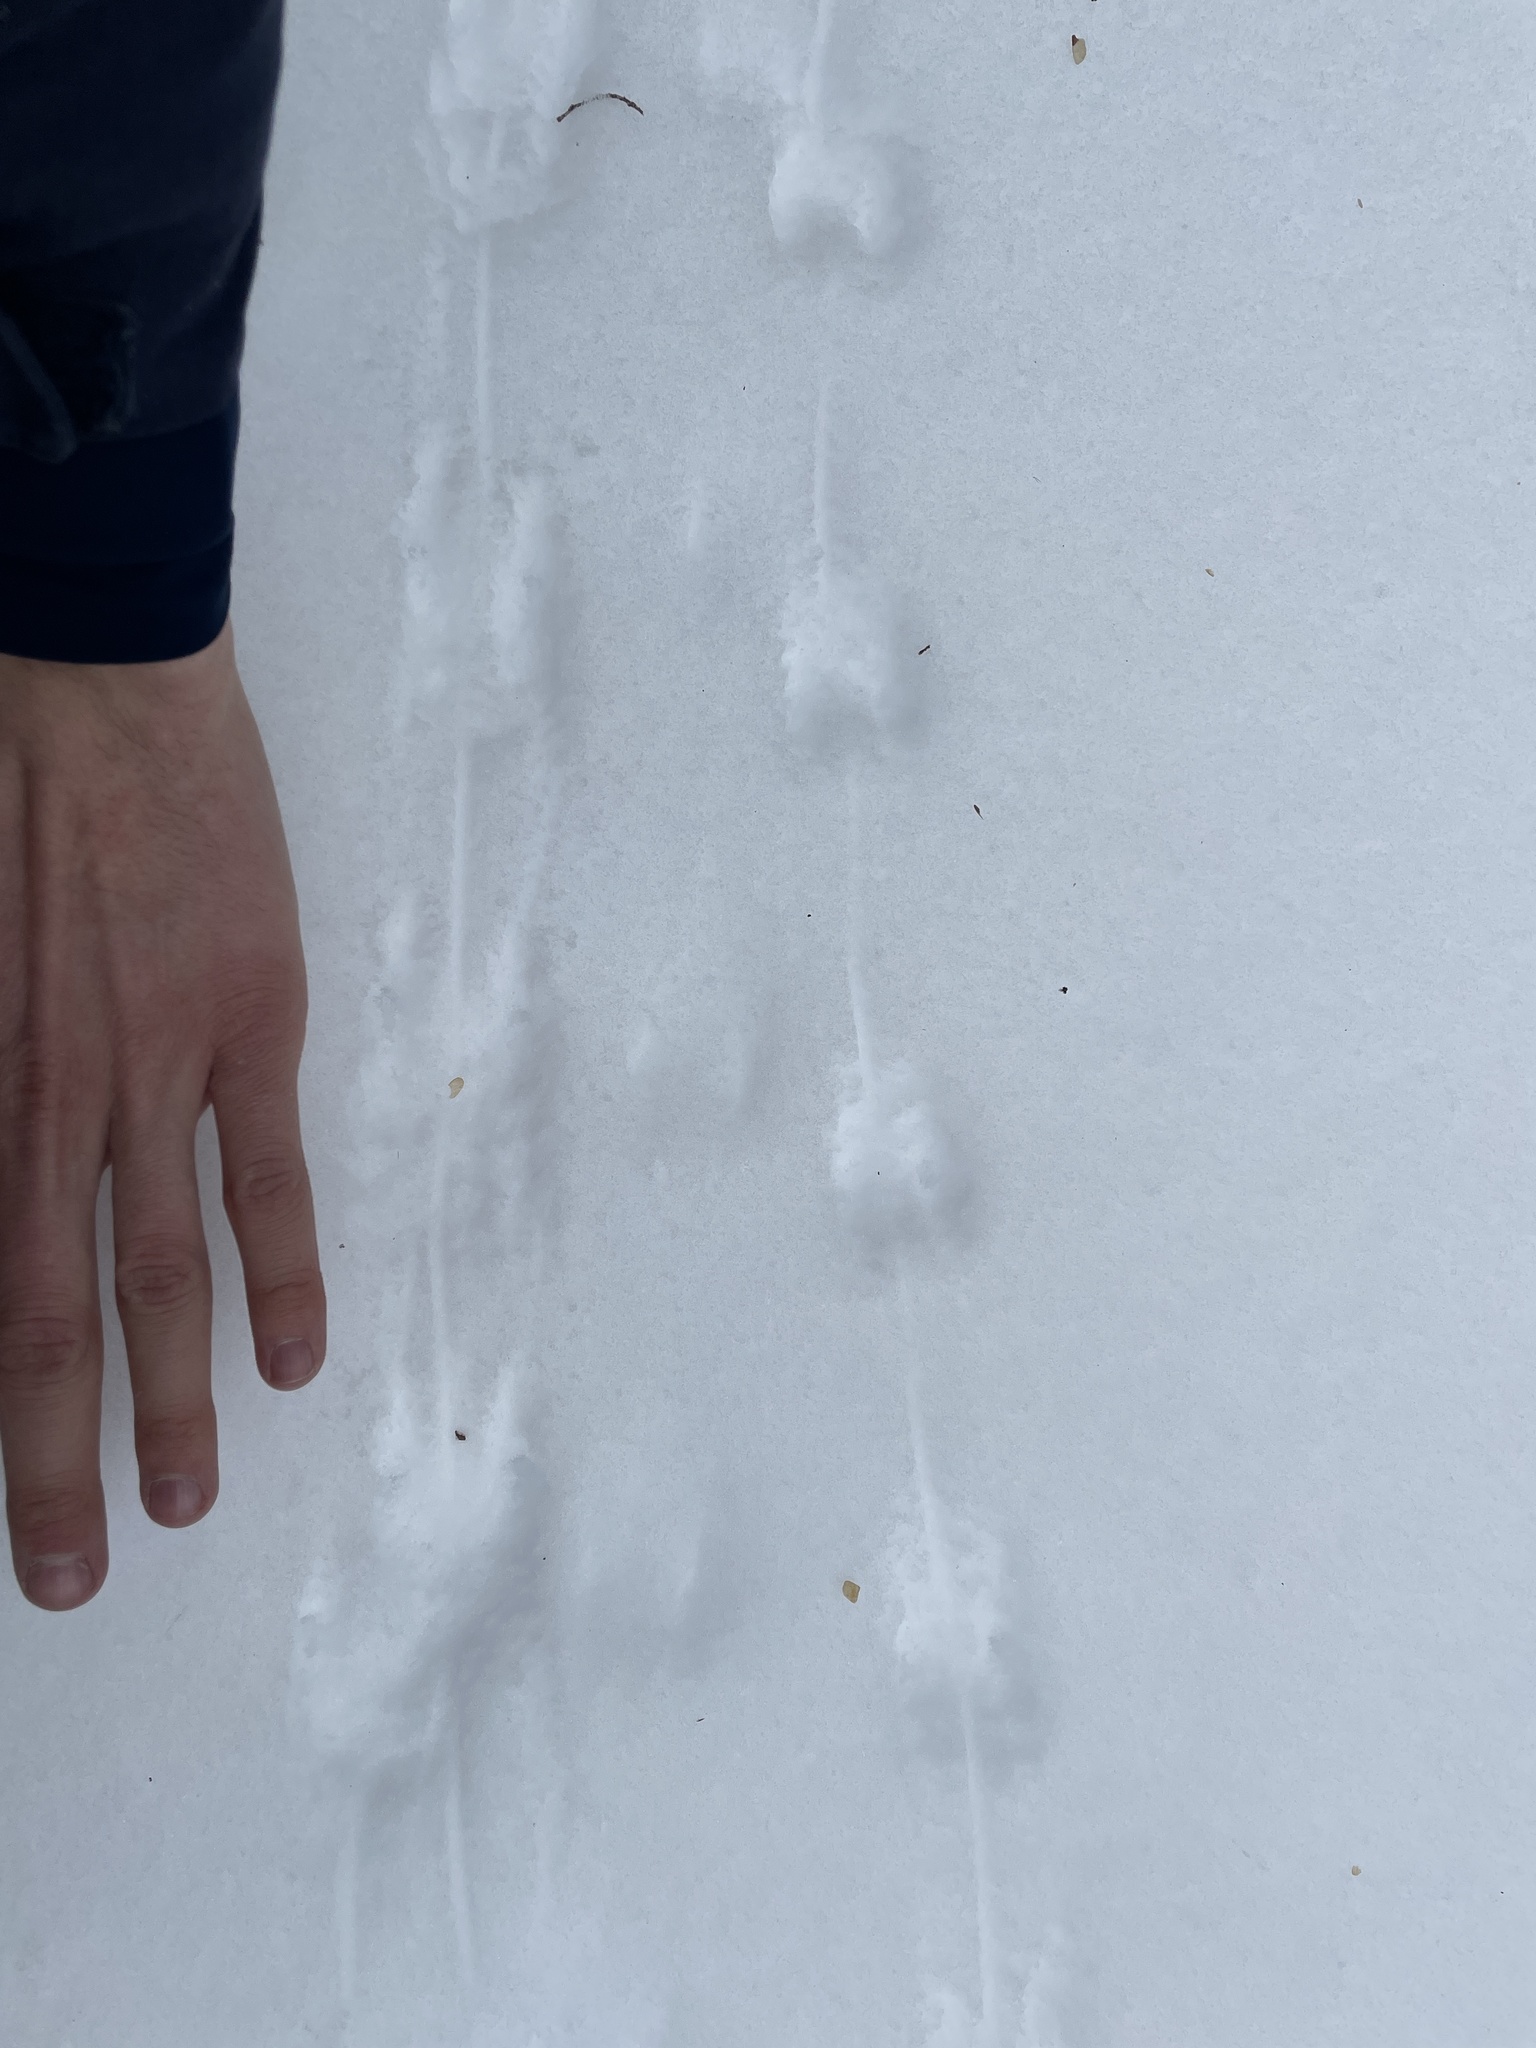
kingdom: Animalia
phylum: Chordata
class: Mammalia
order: Rodentia
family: Cricetidae
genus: Peromyscus
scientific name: Peromyscus
